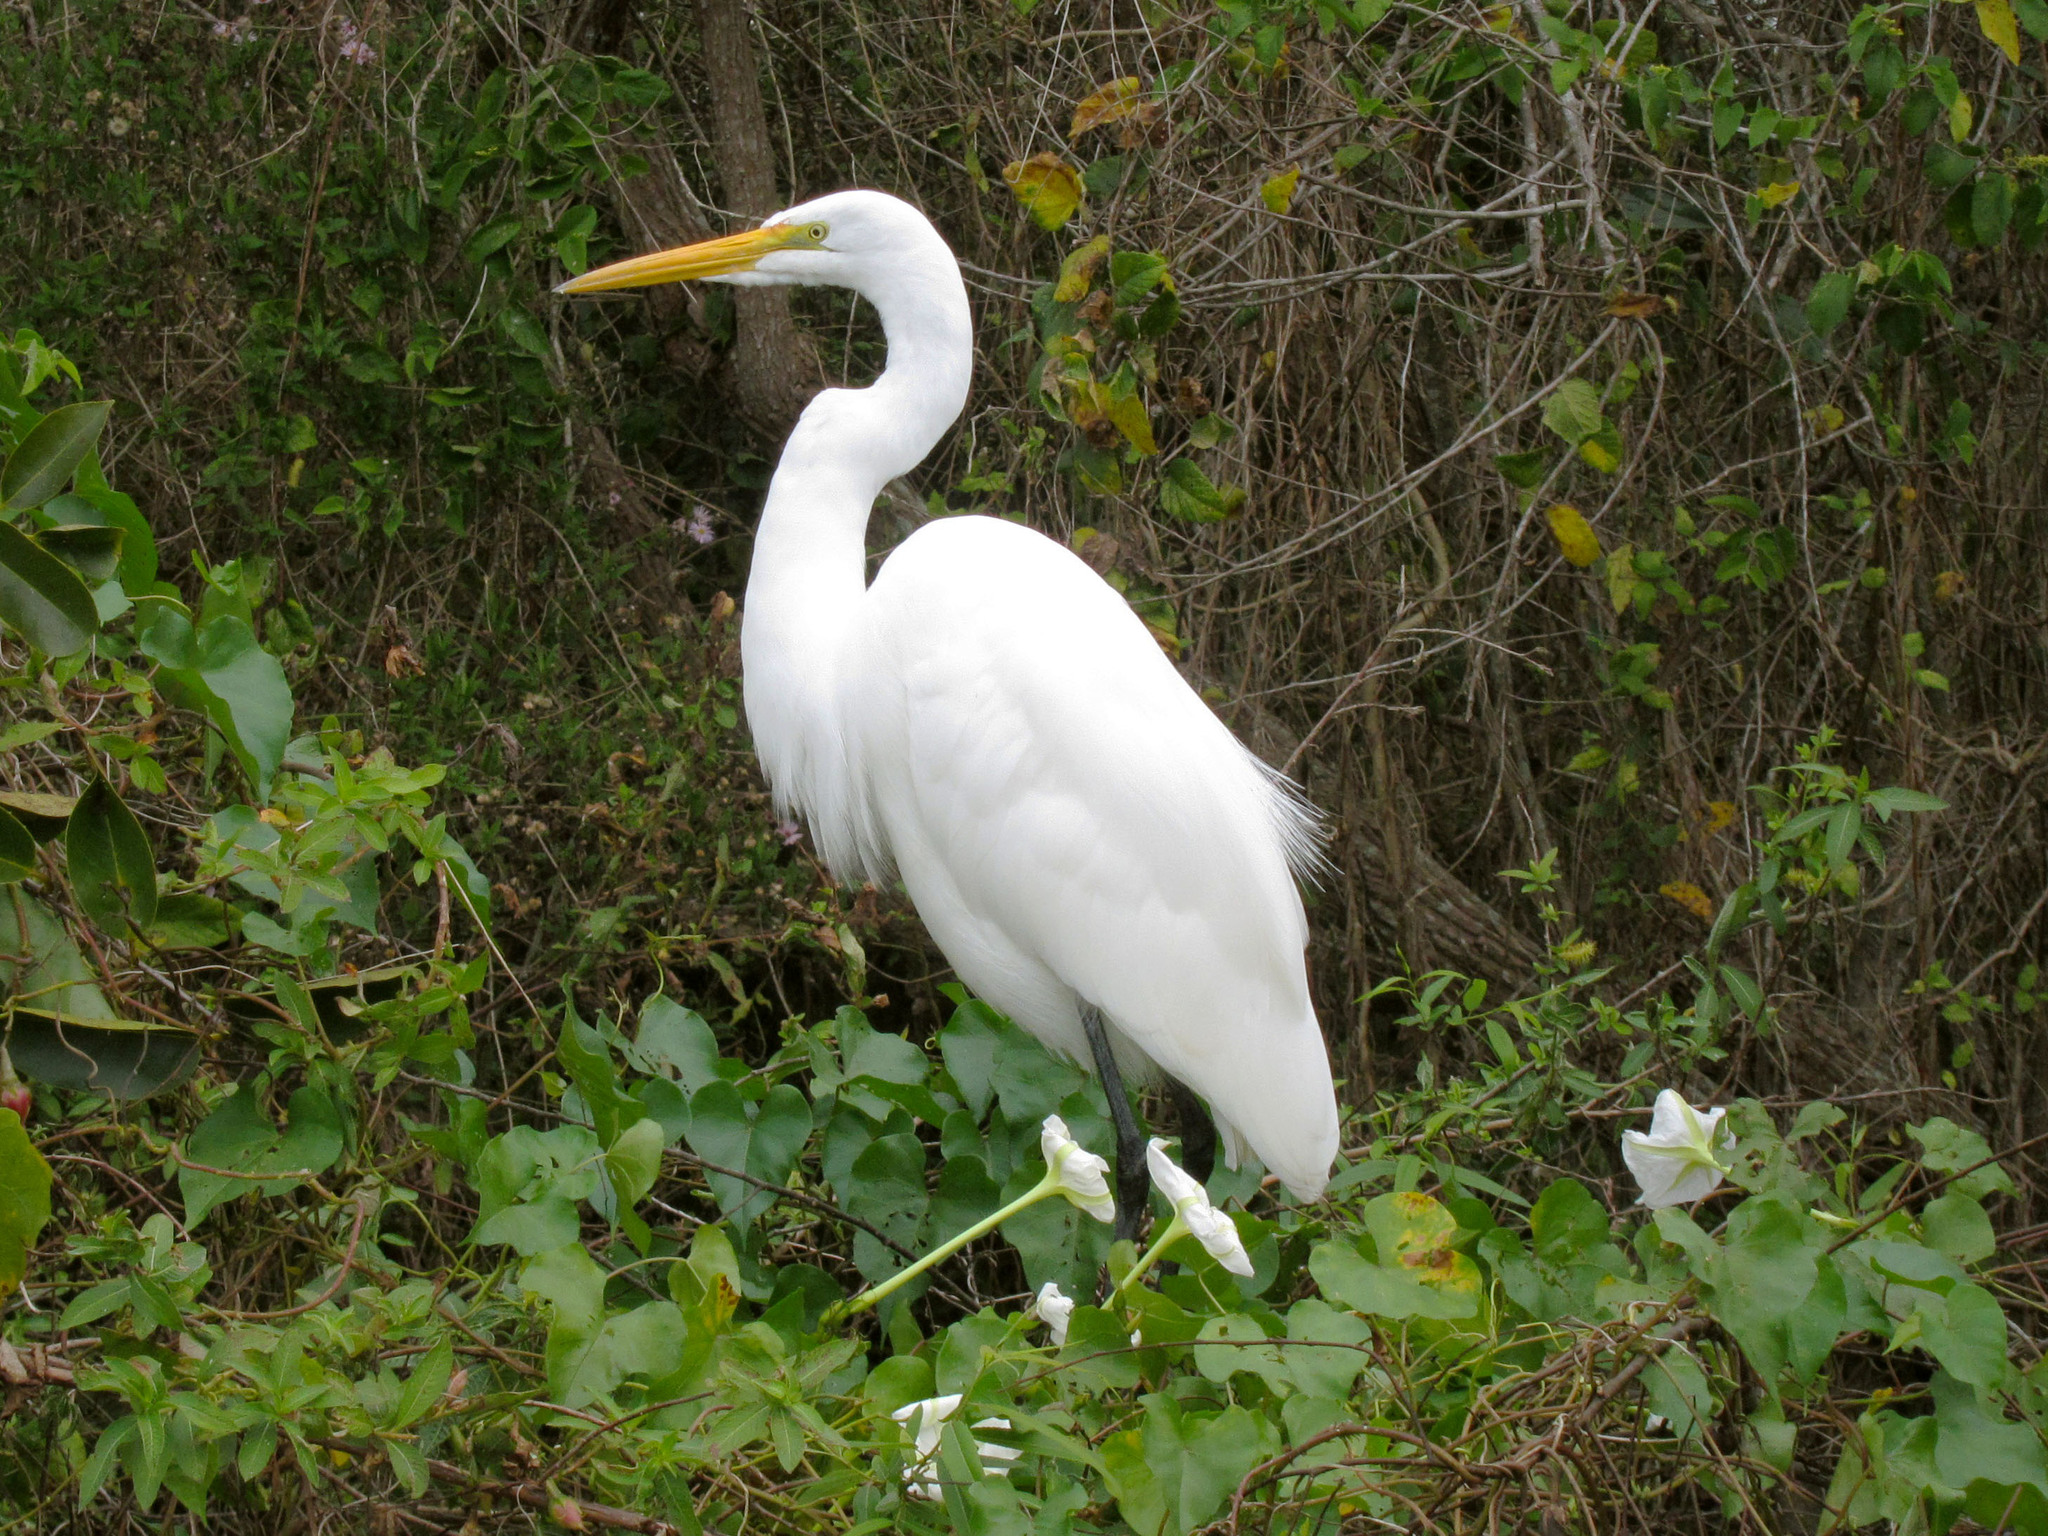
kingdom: Animalia
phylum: Chordata
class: Aves
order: Pelecaniformes
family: Ardeidae
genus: Ardea
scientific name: Ardea alba
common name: Great egret
